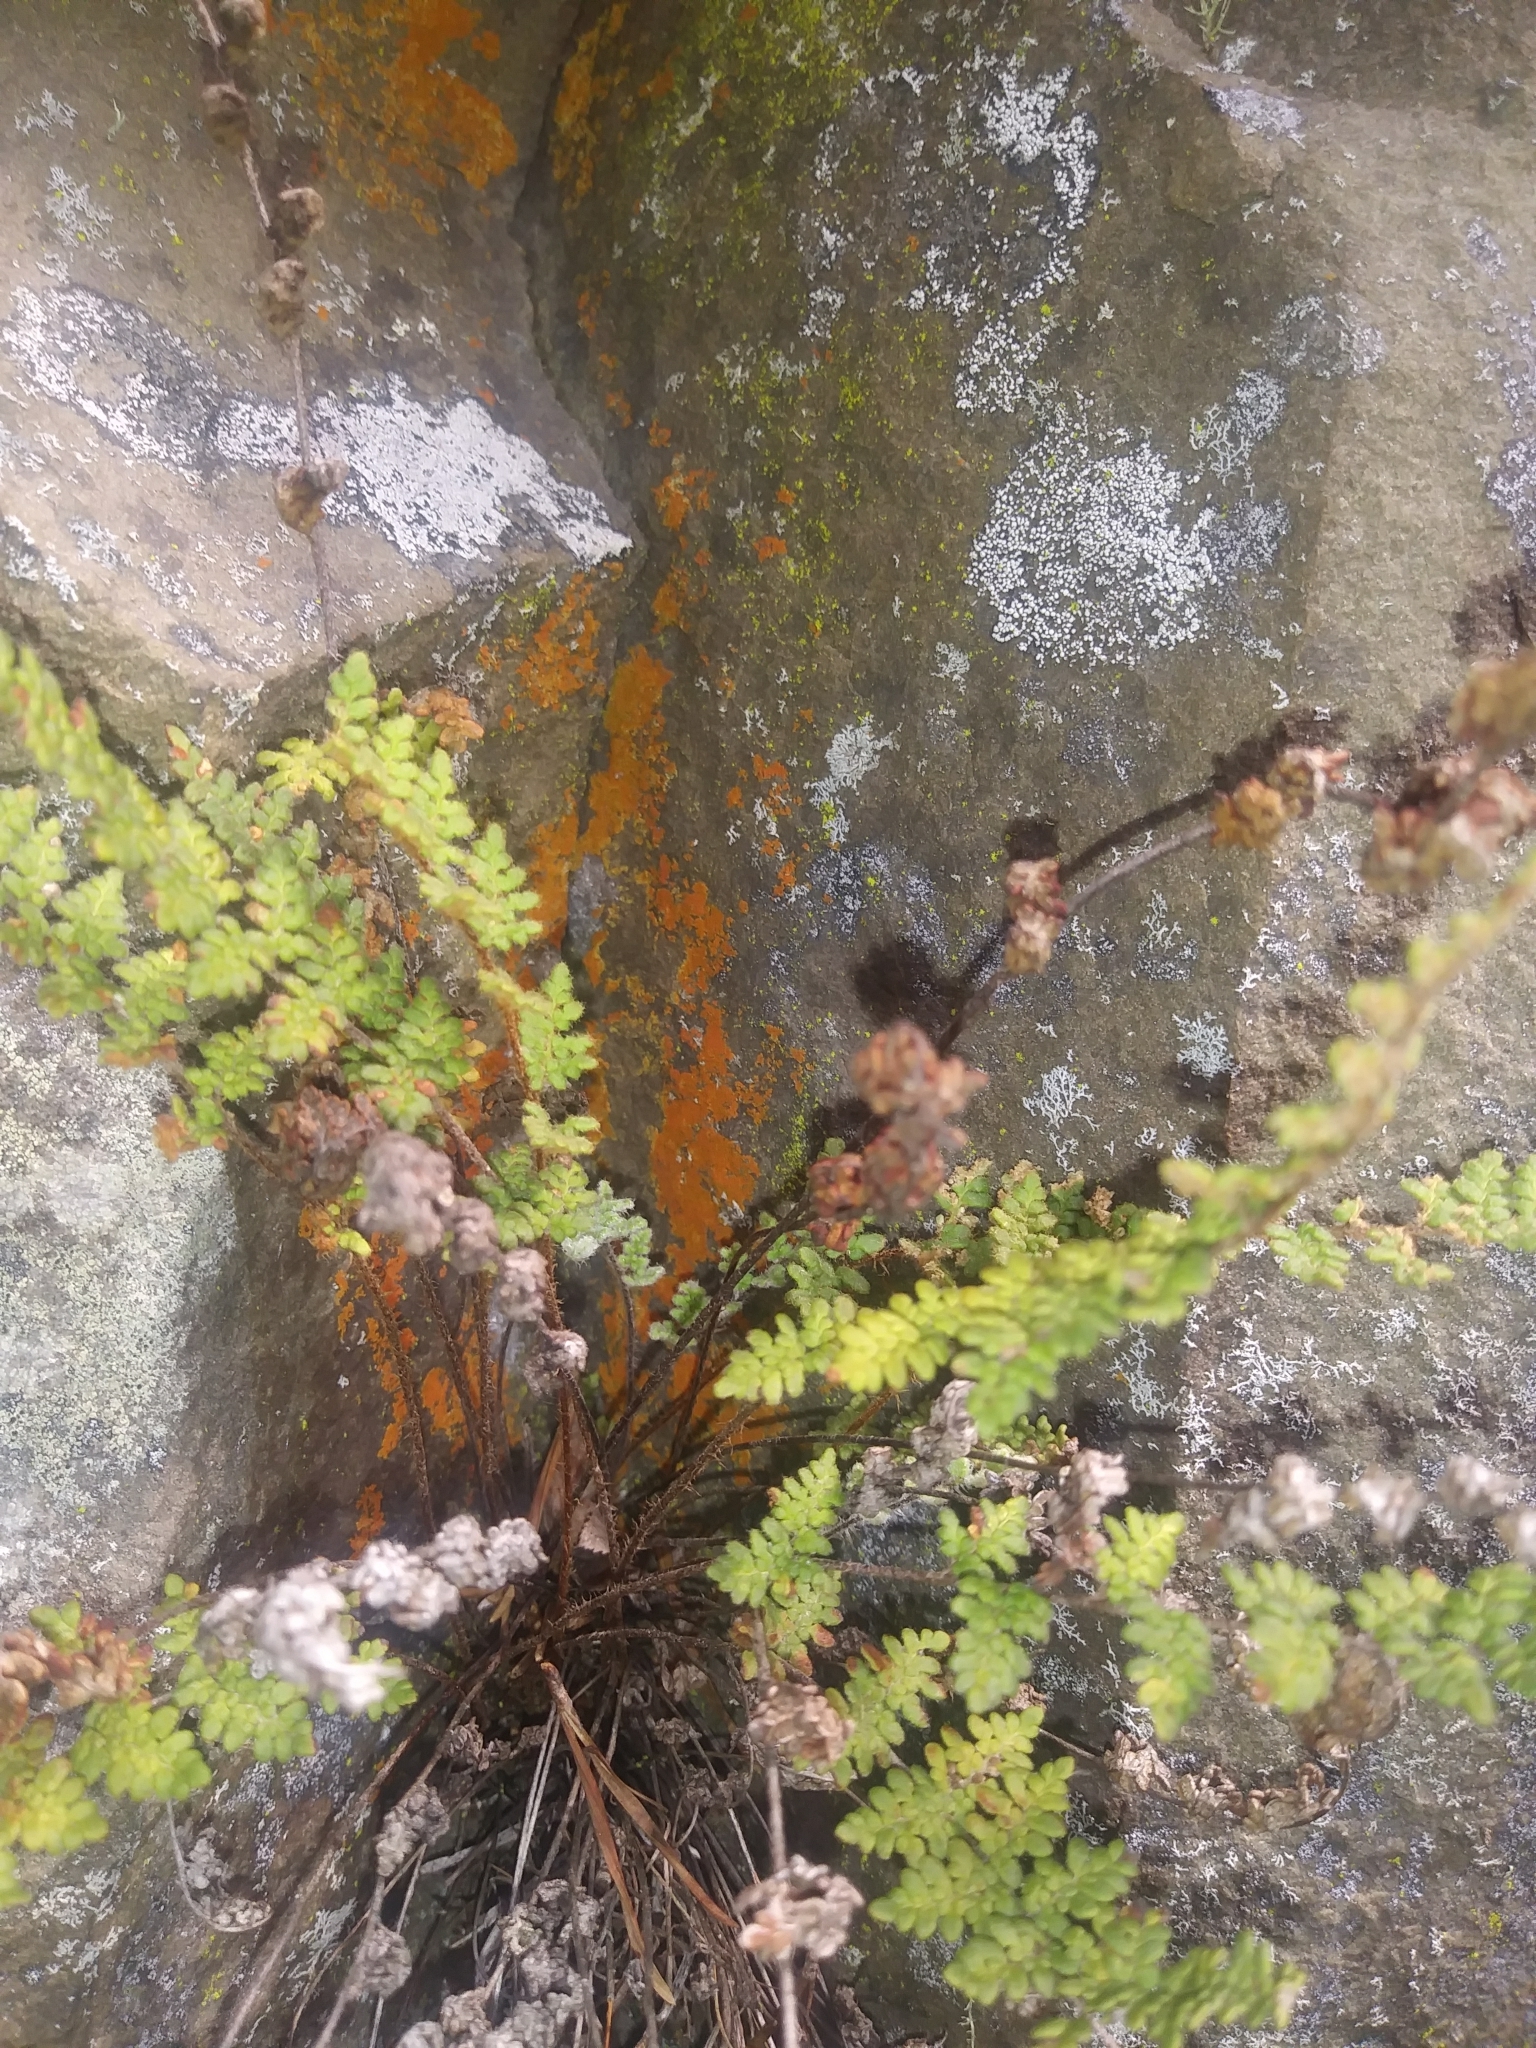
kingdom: Plantae
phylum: Tracheophyta
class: Polypodiopsida
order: Polypodiales
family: Pteridaceae
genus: Myriopteris
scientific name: Myriopteris rufa
